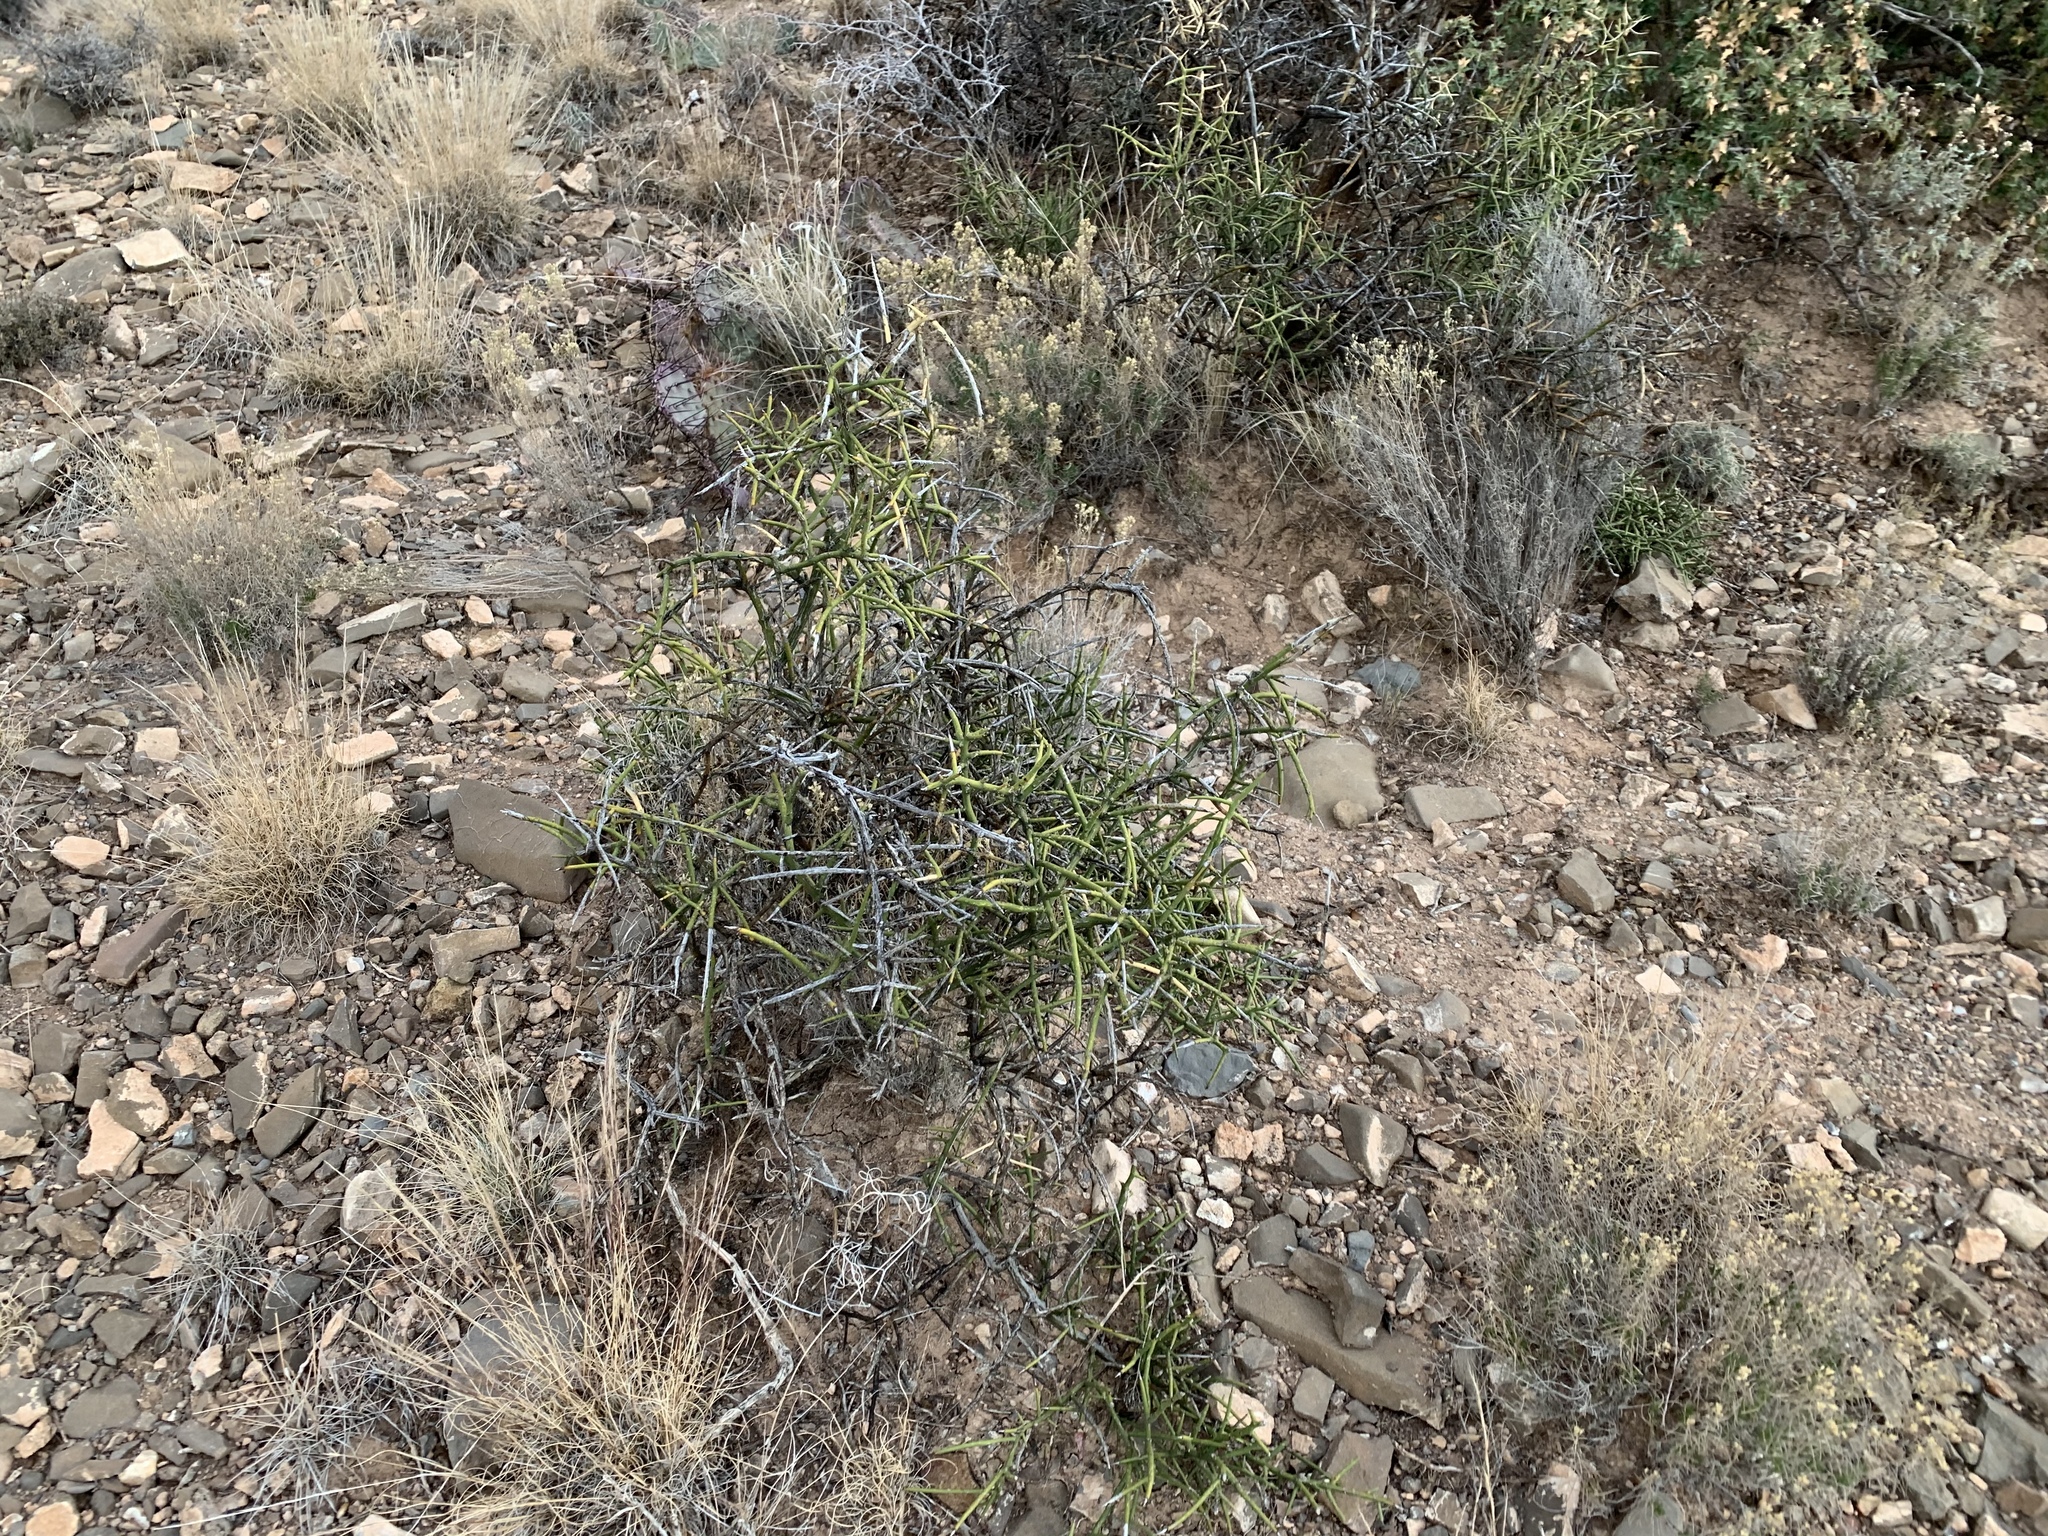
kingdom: Plantae
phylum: Tracheophyta
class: Magnoliopsida
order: Brassicales
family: Koeberliniaceae
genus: Koeberlinia
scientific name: Koeberlinia spinosa
